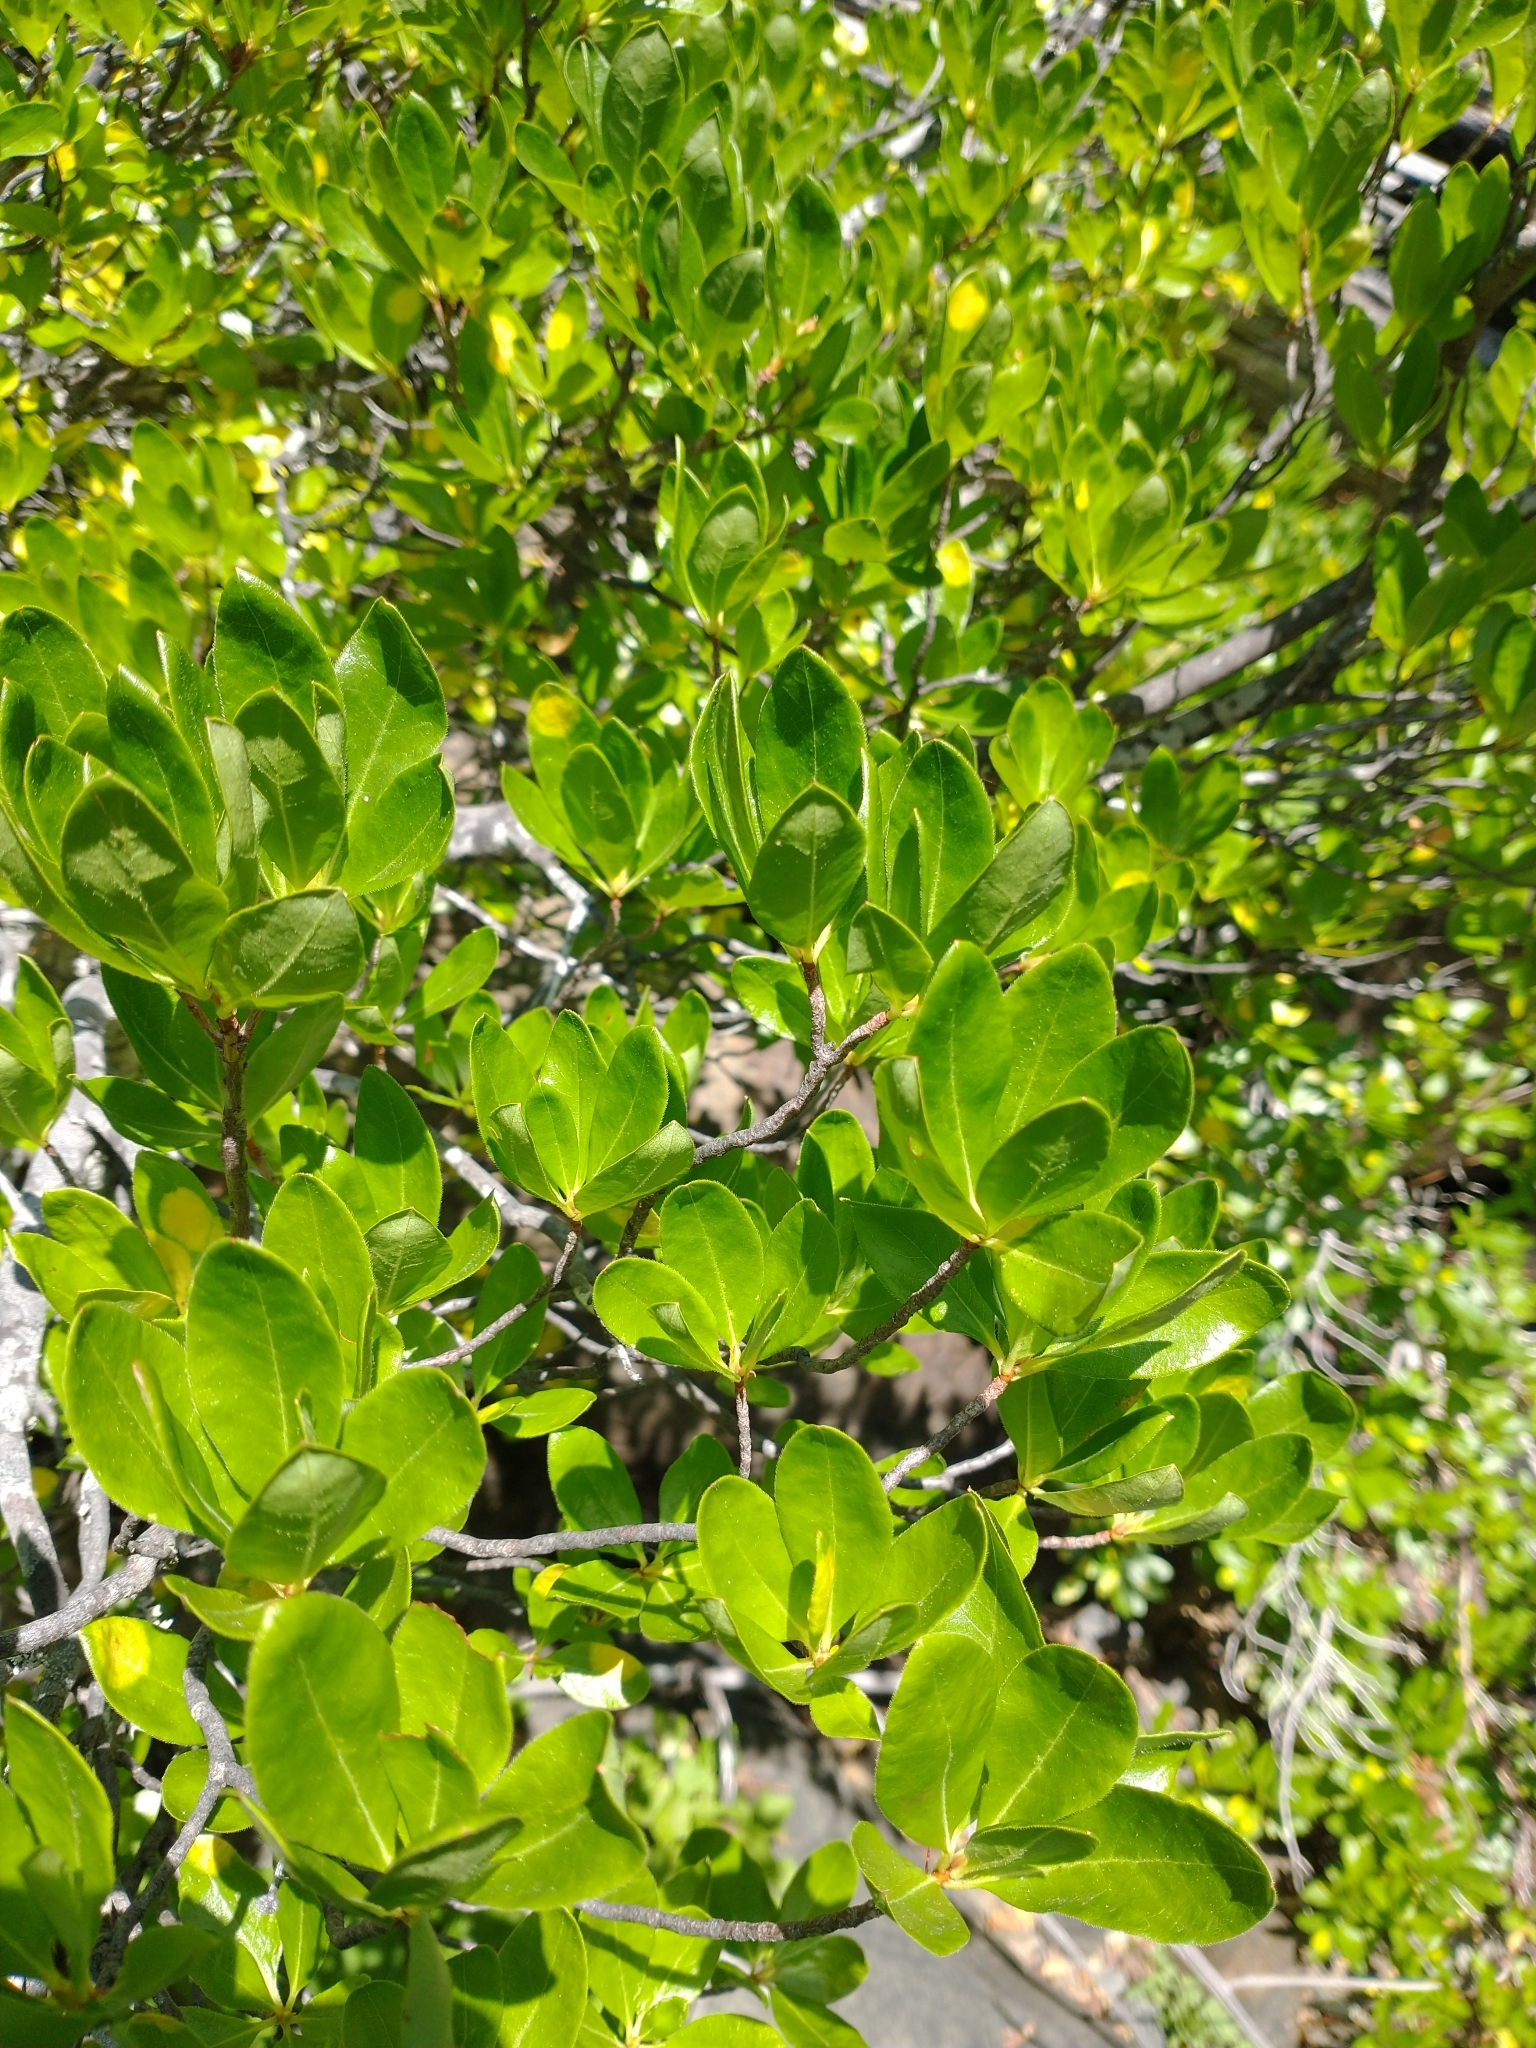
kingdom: Plantae
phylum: Tracheophyta
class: Magnoliopsida
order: Ericales
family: Ericaceae
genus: Rhododendron
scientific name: Rhododendron occidentale
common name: Western azalea
